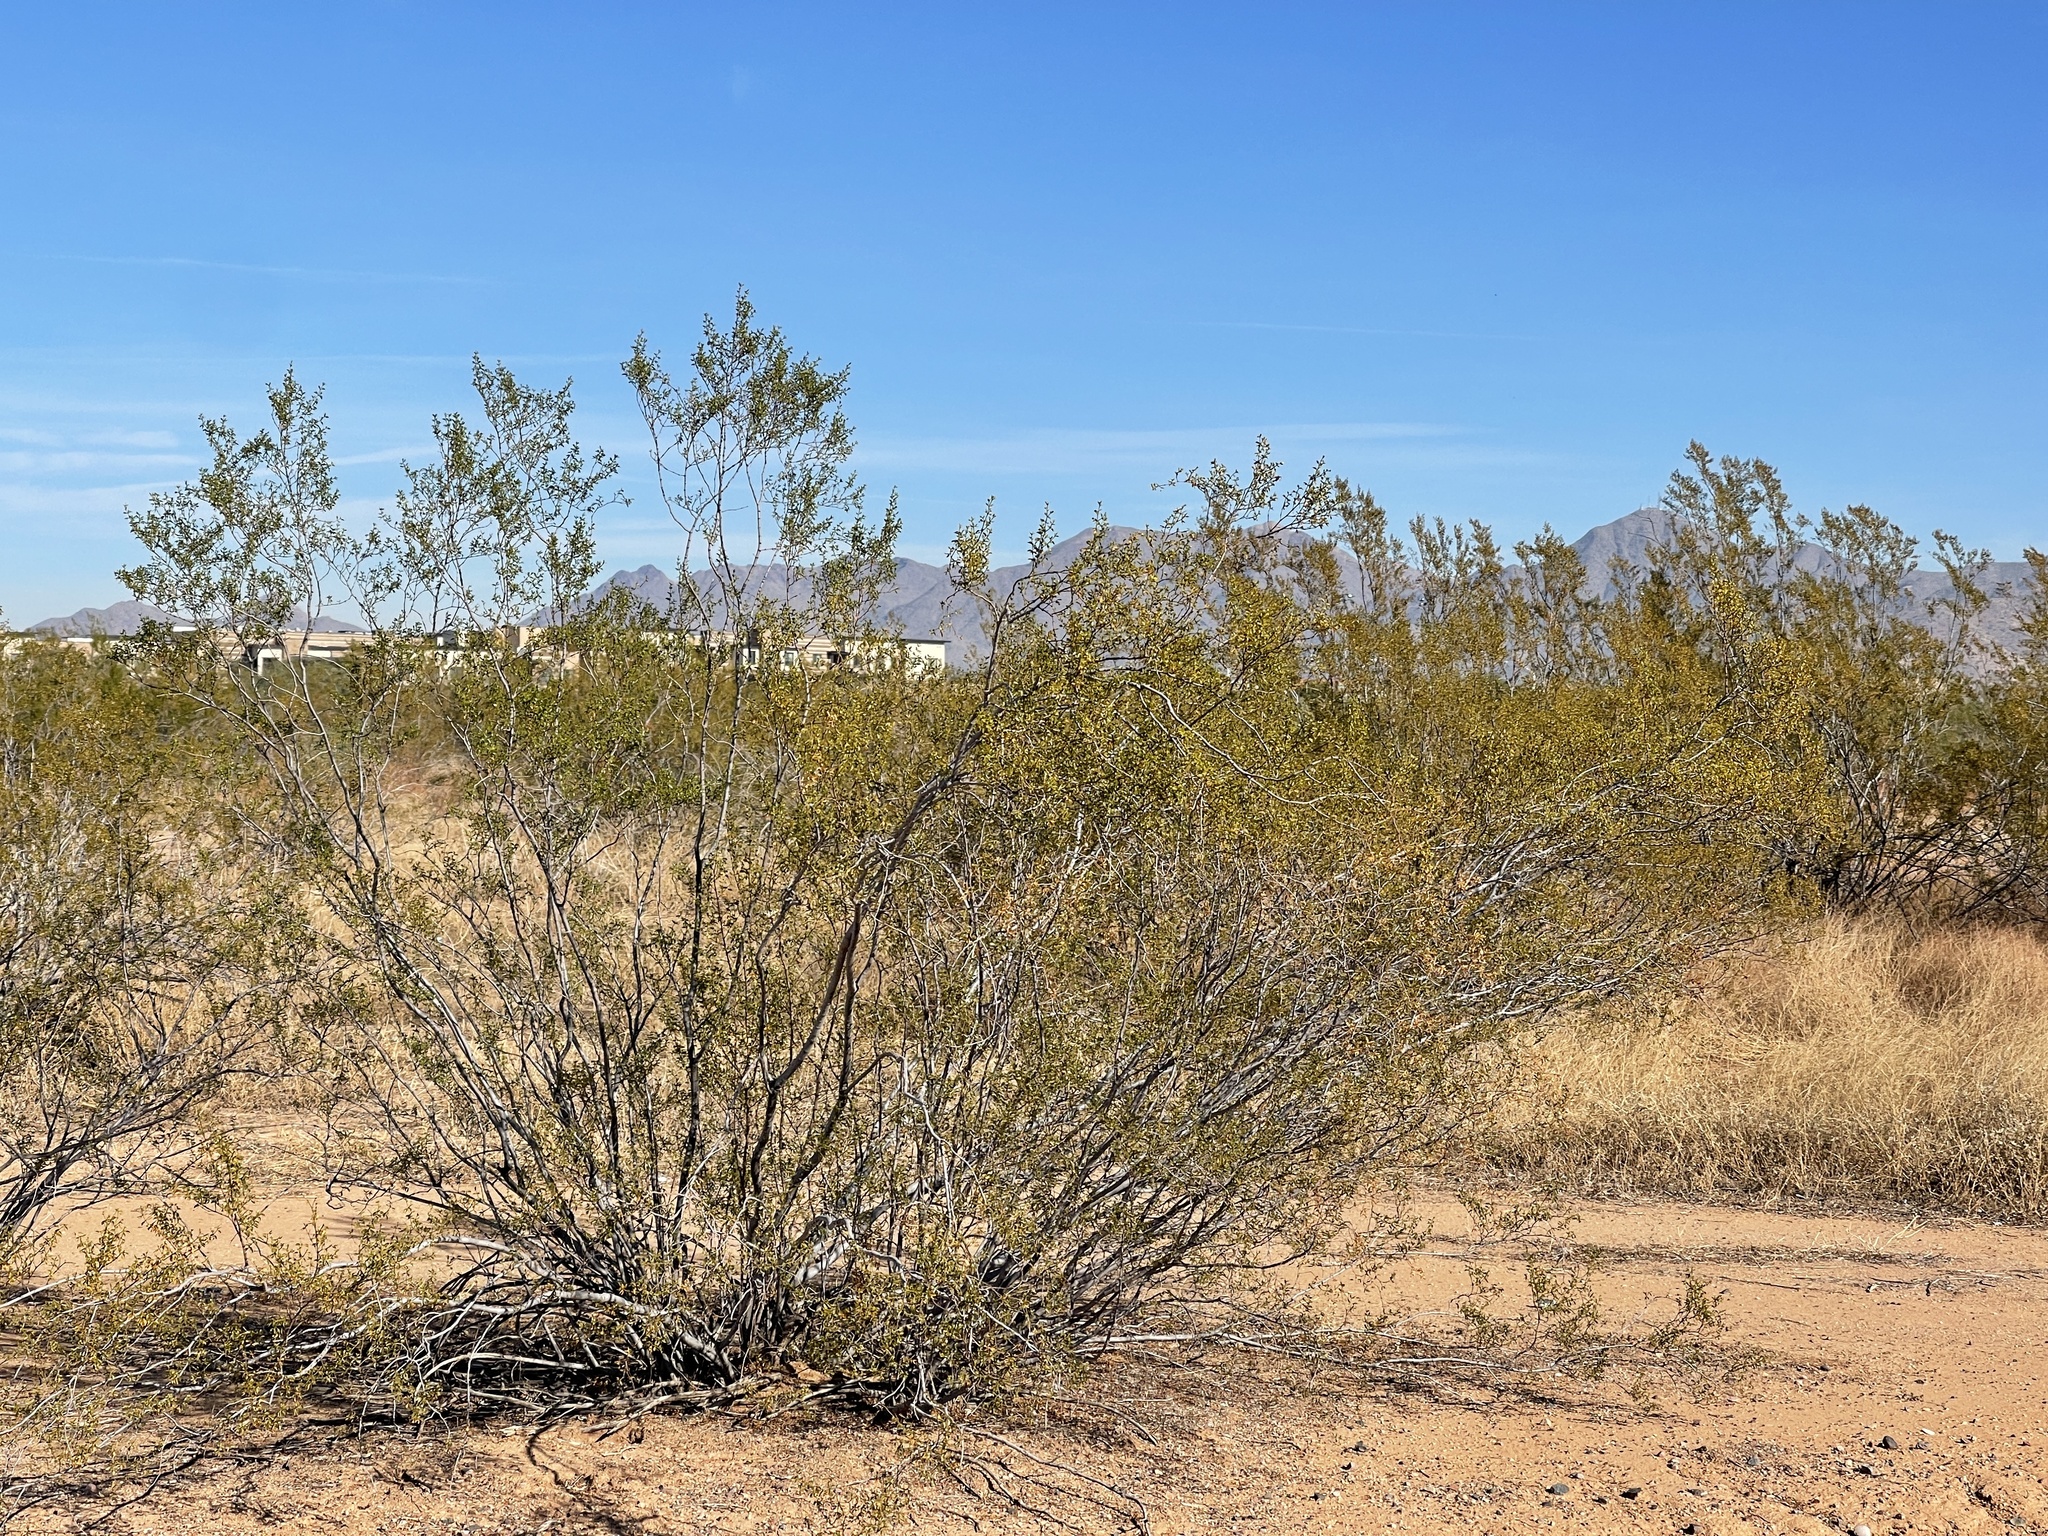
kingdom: Plantae
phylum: Tracheophyta
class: Magnoliopsida
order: Zygophyllales
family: Zygophyllaceae
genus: Larrea
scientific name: Larrea tridentata
